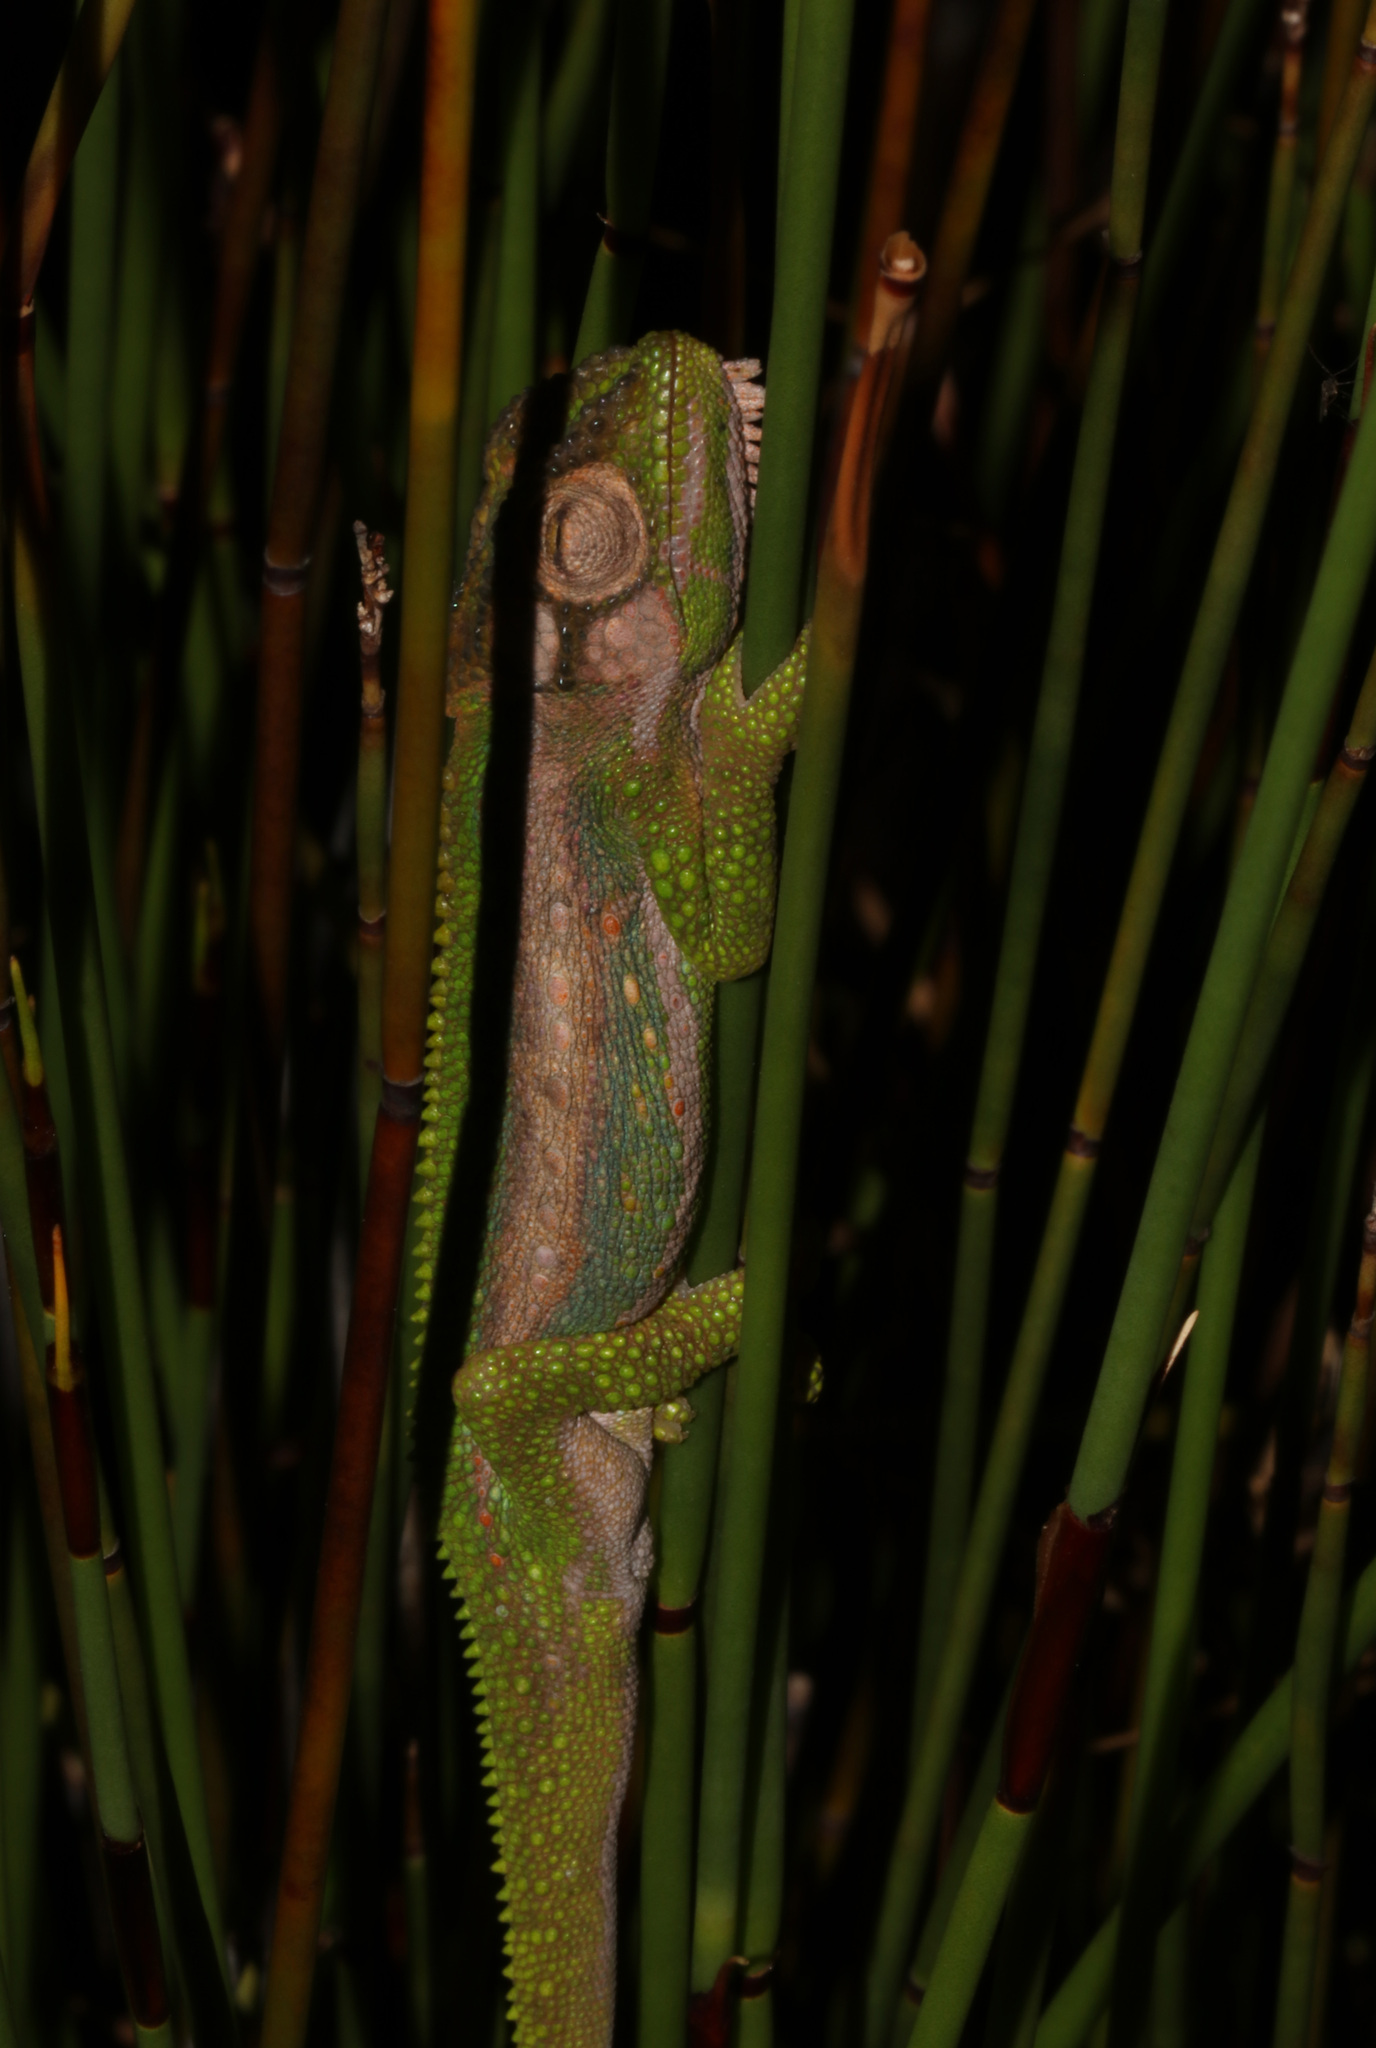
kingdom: Animalia
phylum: Chordata
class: Squamata
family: Chamaeleonidae
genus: Bradypodion
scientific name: Bradypodion pumilum
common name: Cape dwarf chameleon
